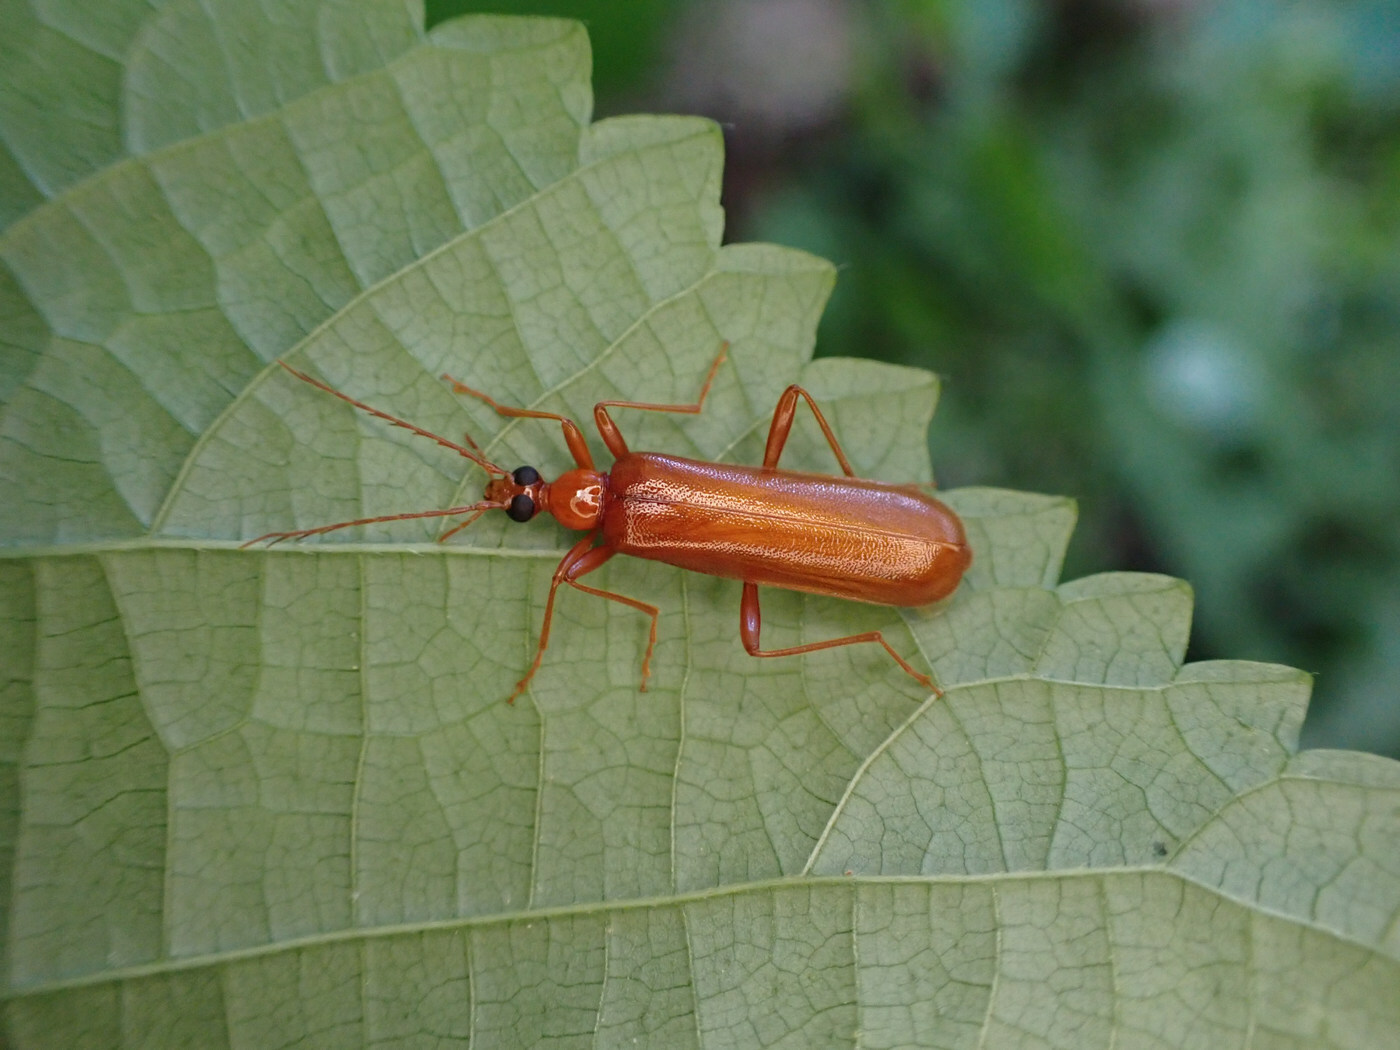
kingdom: Animalia
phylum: Arthropoda
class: Insecta
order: Coleoptera
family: Pyrochroidae
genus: Dendroides
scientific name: Dendroides concolor
